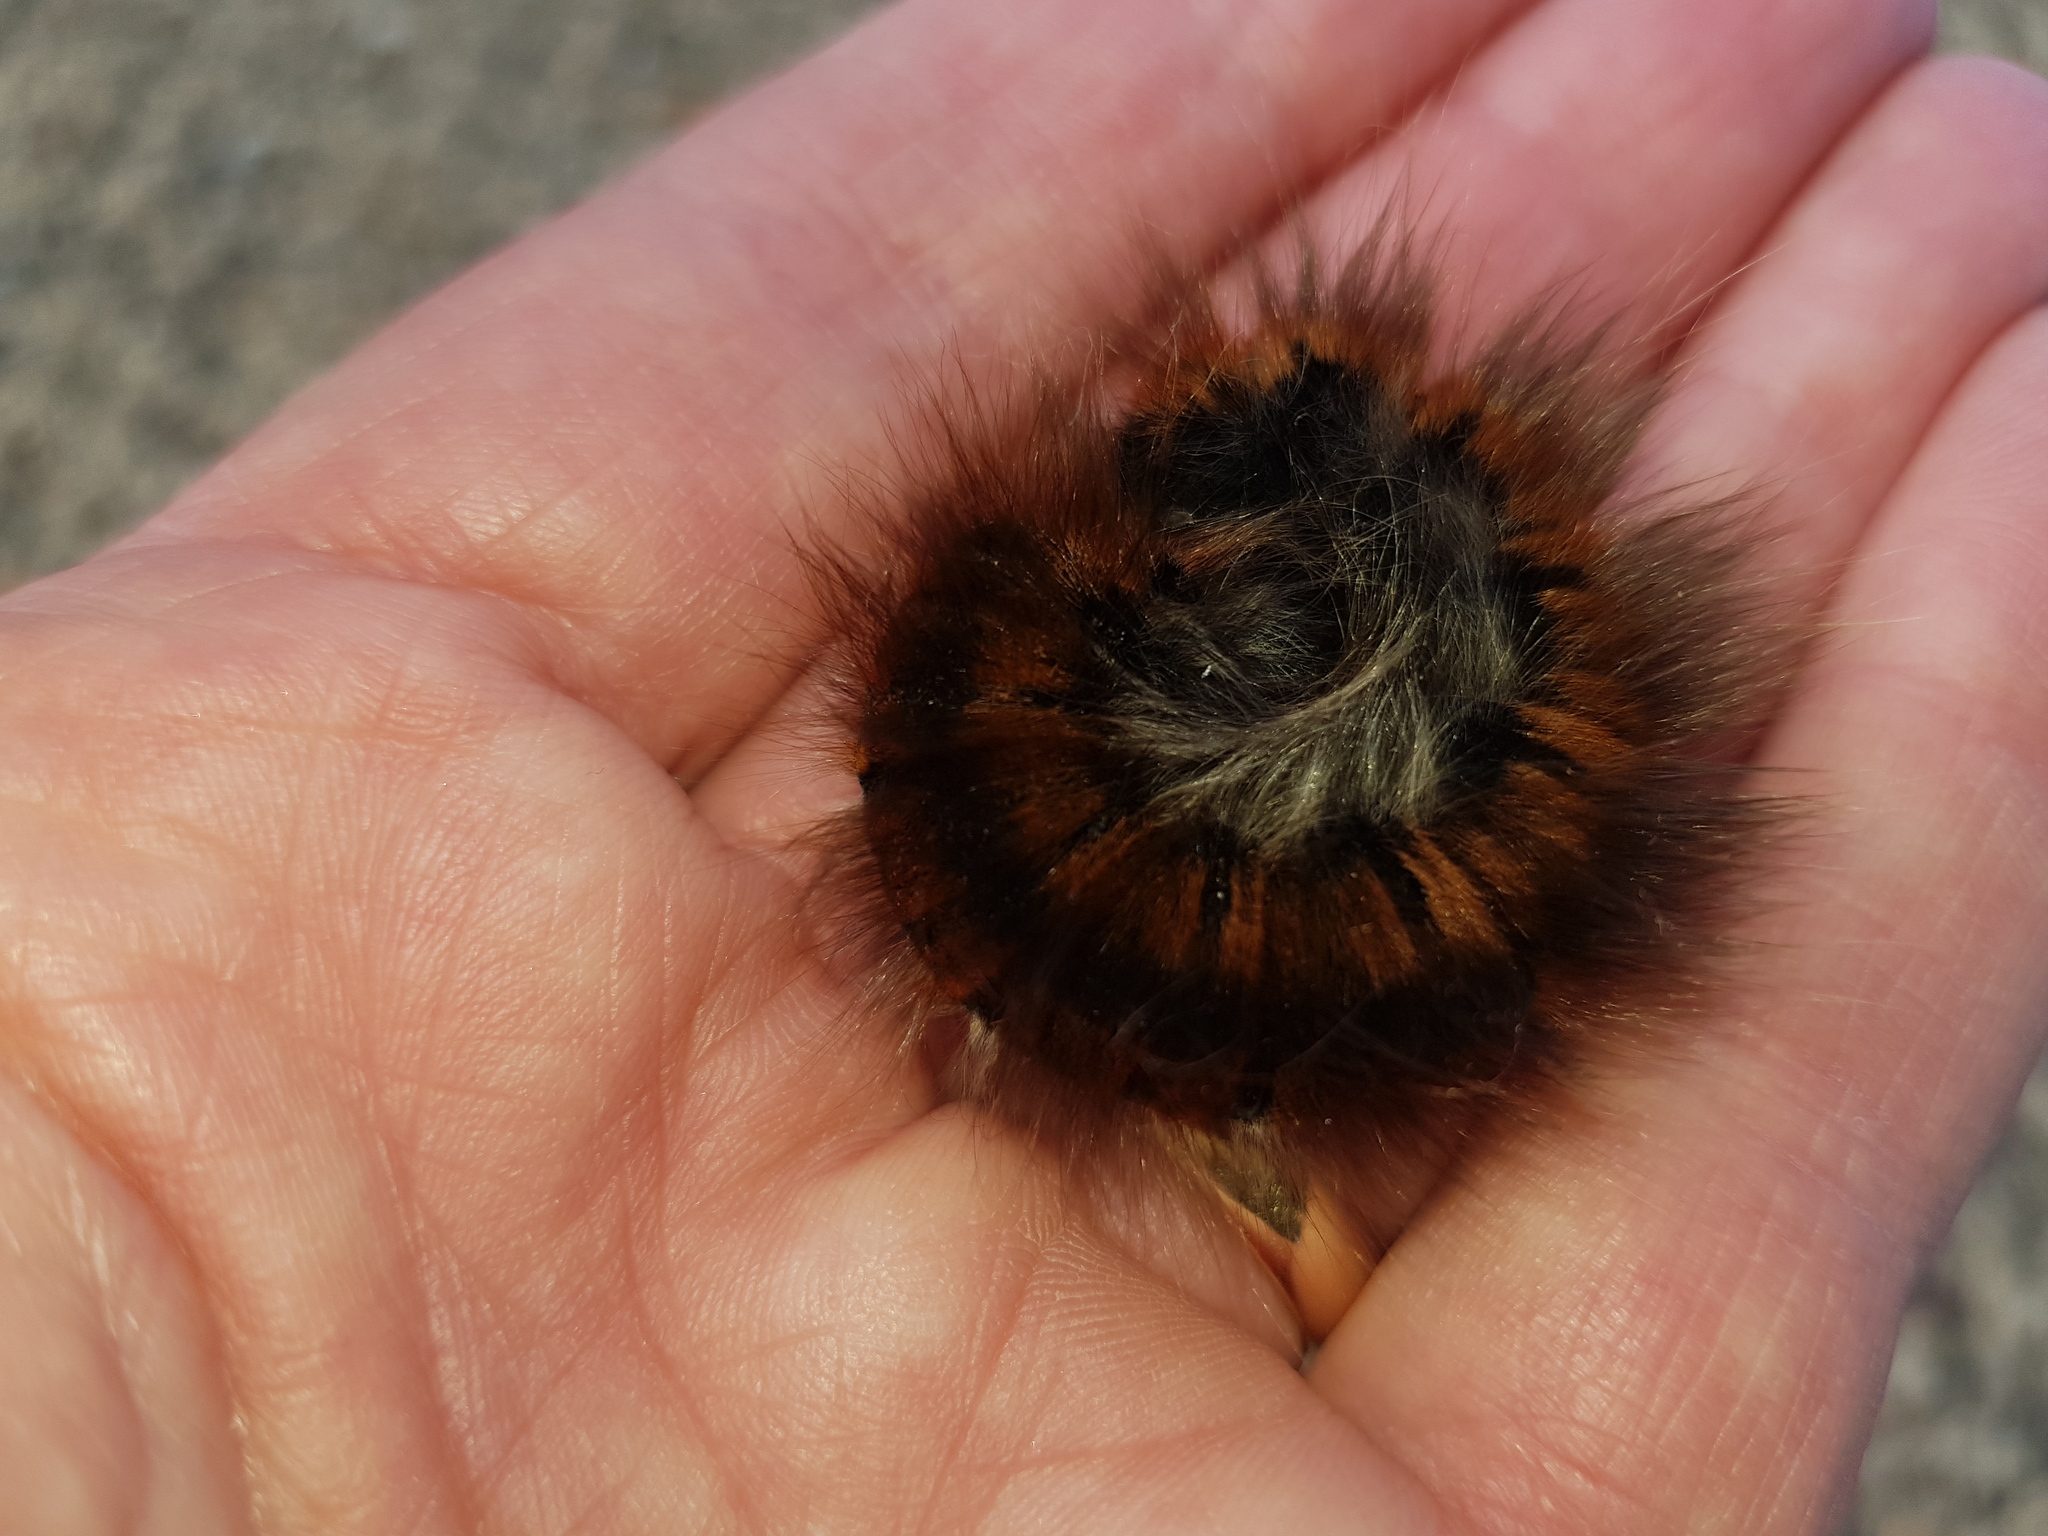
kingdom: Animalia
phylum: Arthropoda
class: Insecta
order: Lepidoptera
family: Lasiocampidae
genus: Macrothylacia
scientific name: Macrothylacia rubi
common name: Fox moth
